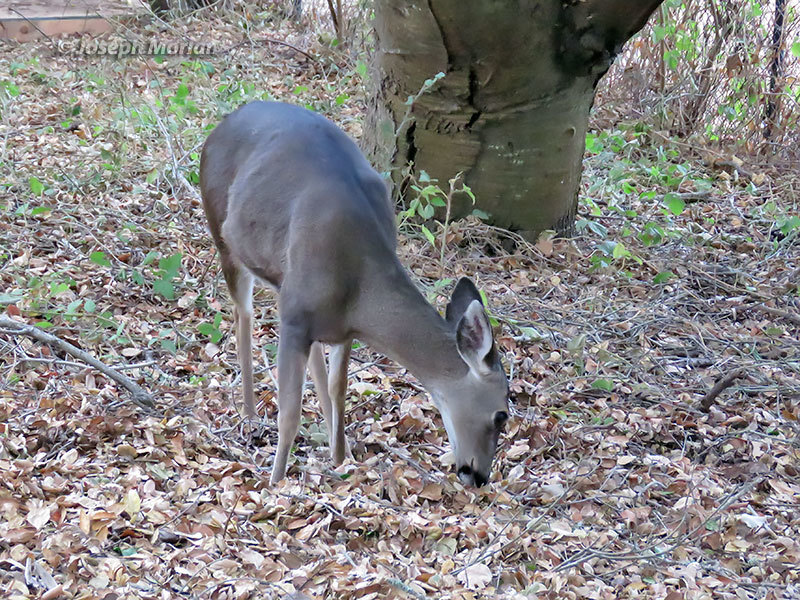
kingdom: Animalia
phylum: Chordata
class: Mammalia
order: Artiodactyla
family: Cervidae
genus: Odocoileus
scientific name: Odocoileus hemionus
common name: Mule deer
